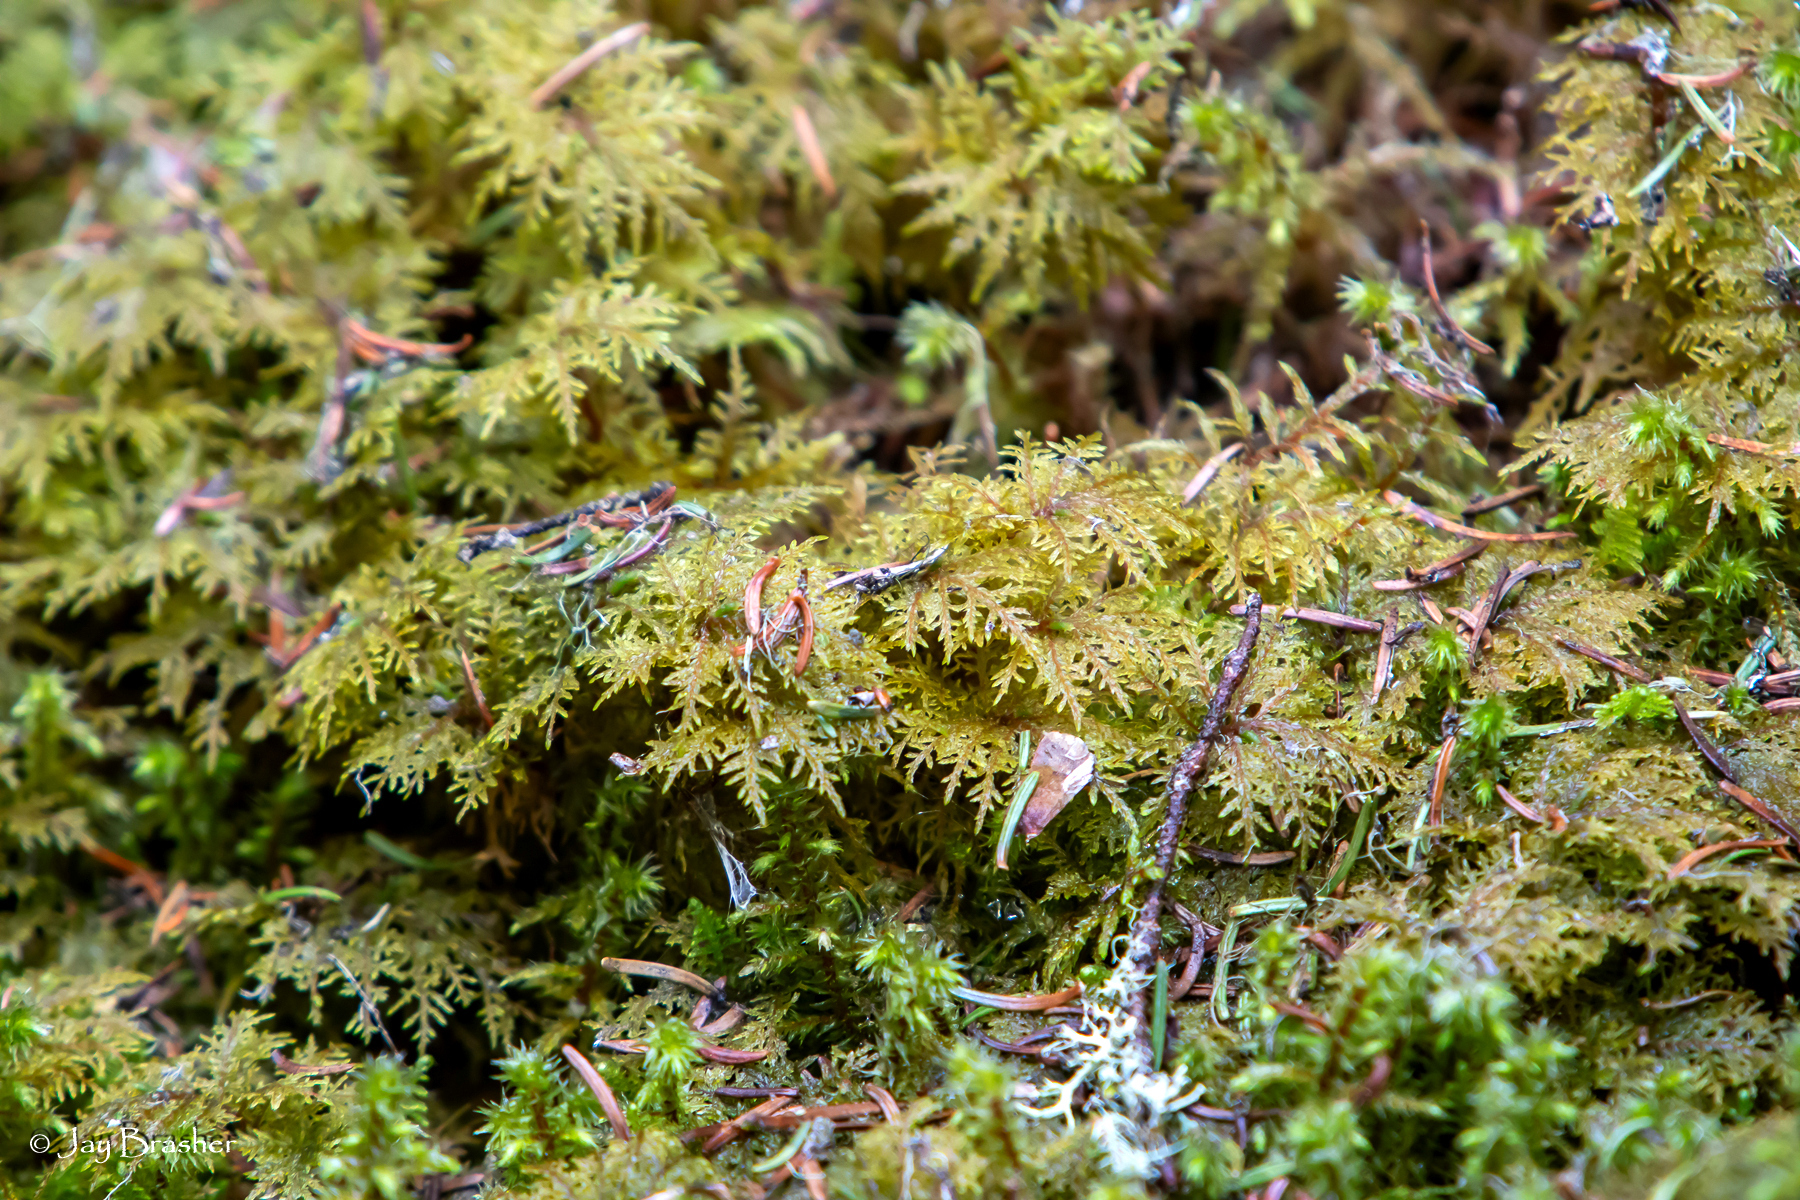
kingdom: Plantae
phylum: Bryophyta
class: Bryopsida
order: Hypnales
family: Hylocomiaceae
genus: Hylocomium
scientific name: Hylocomium splendens
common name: Stairstep moss
